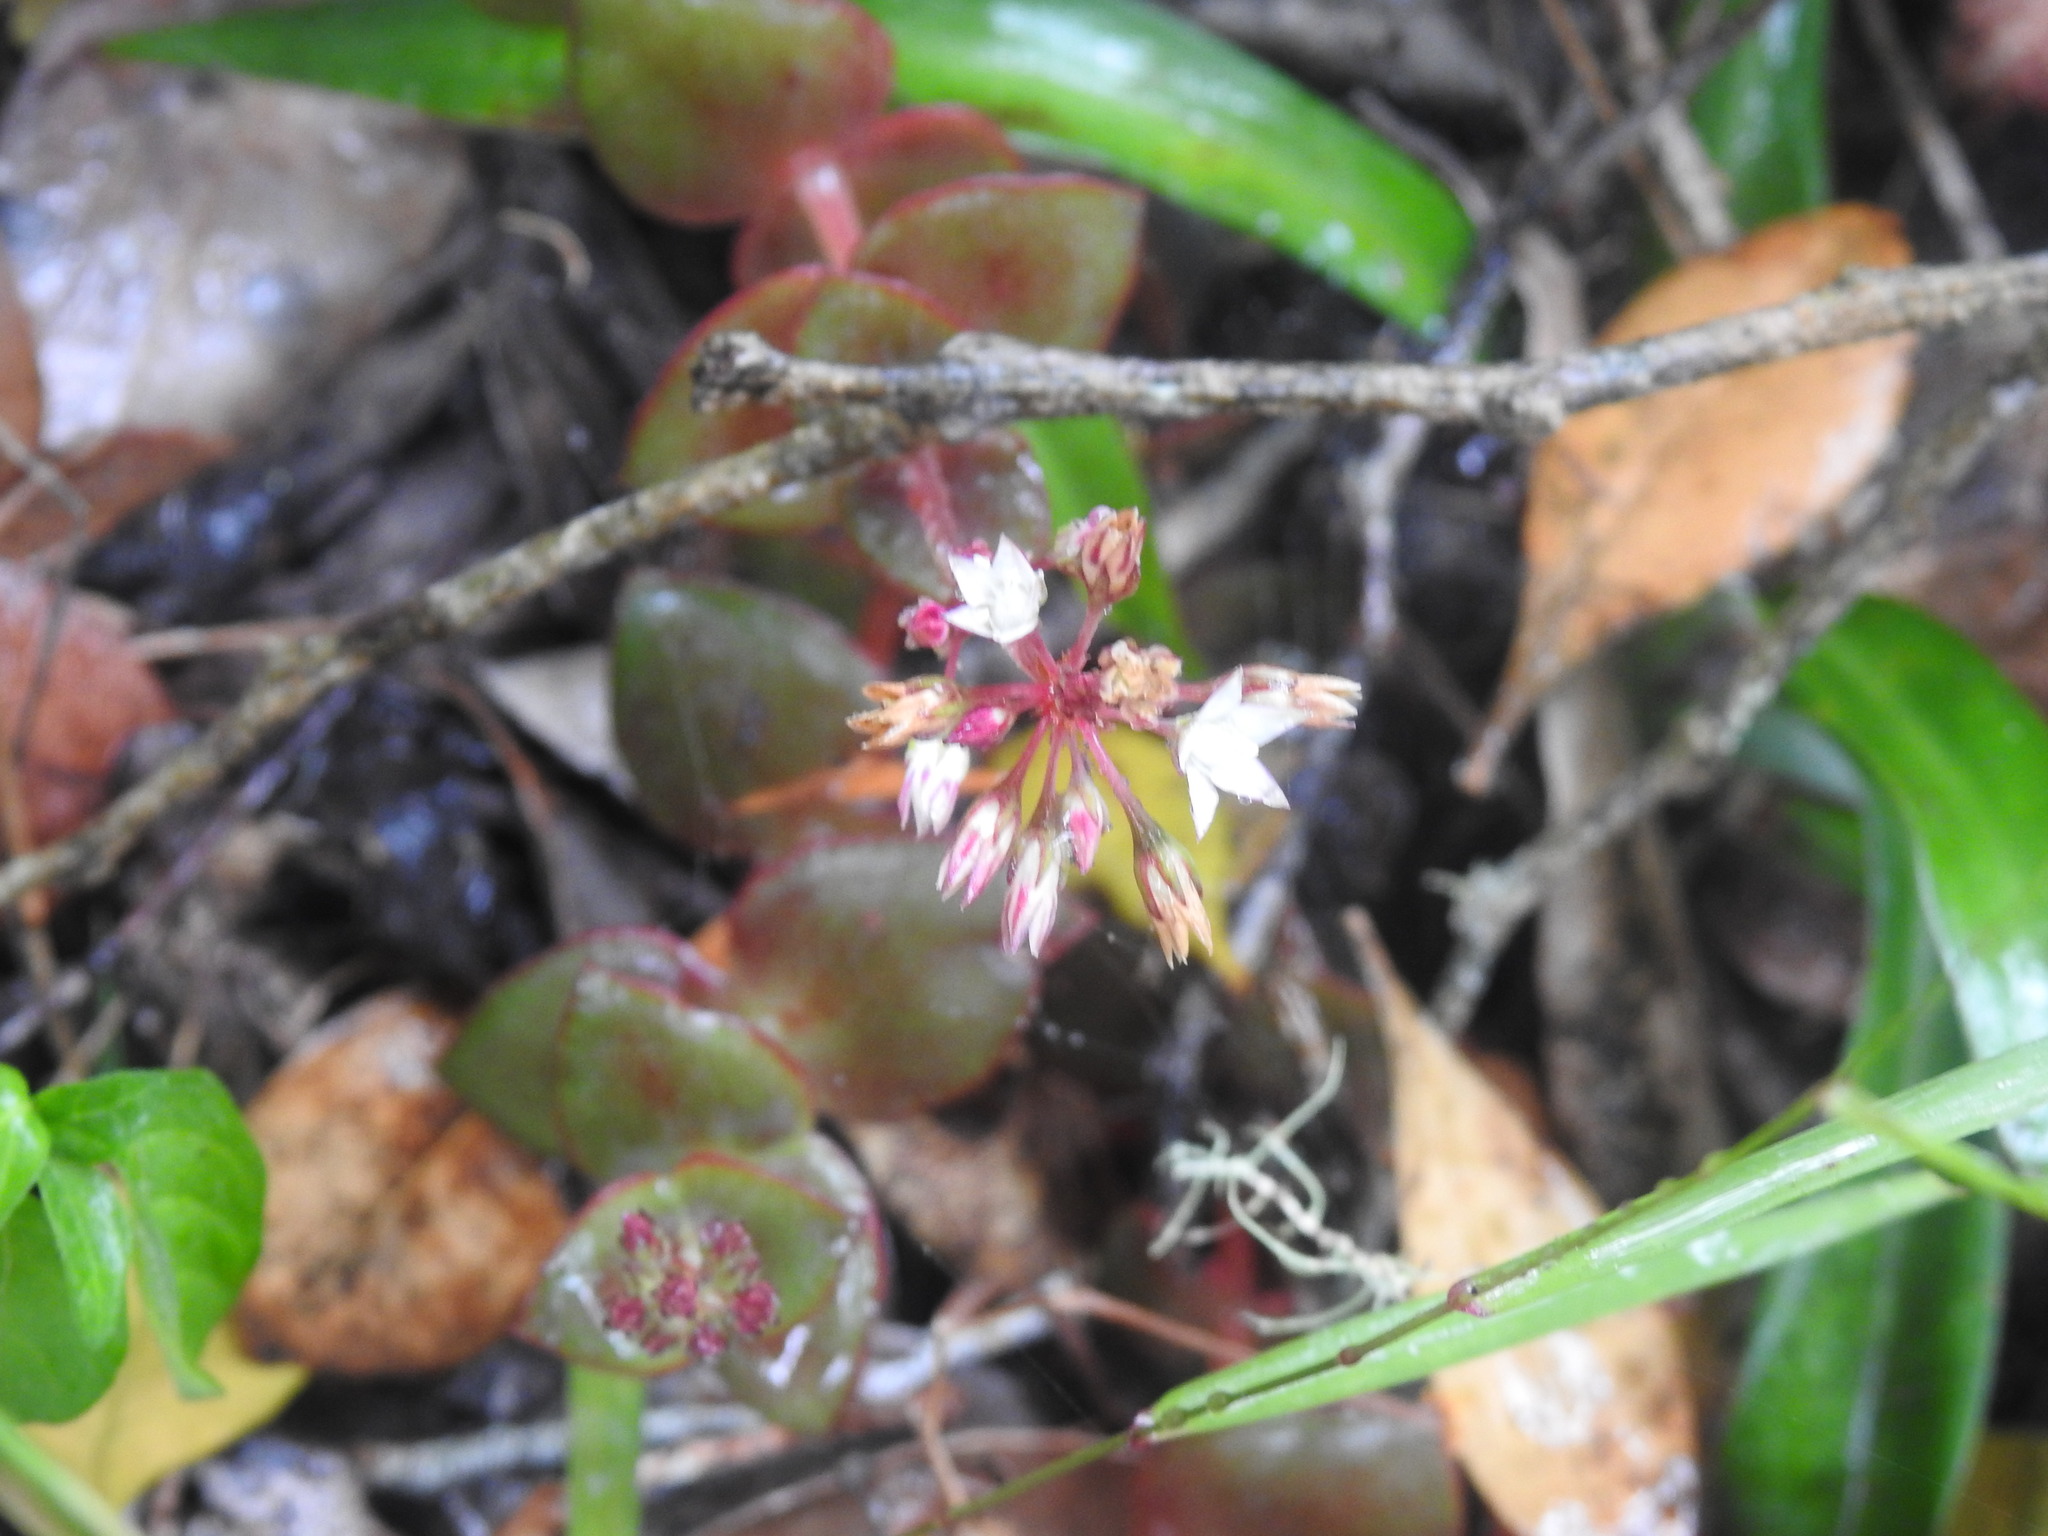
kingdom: Plantae
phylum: Tracheophyta
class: Magnoliopsida
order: Saxifragales
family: Crassulaceae
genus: Crassula
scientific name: Crassula pellucida
